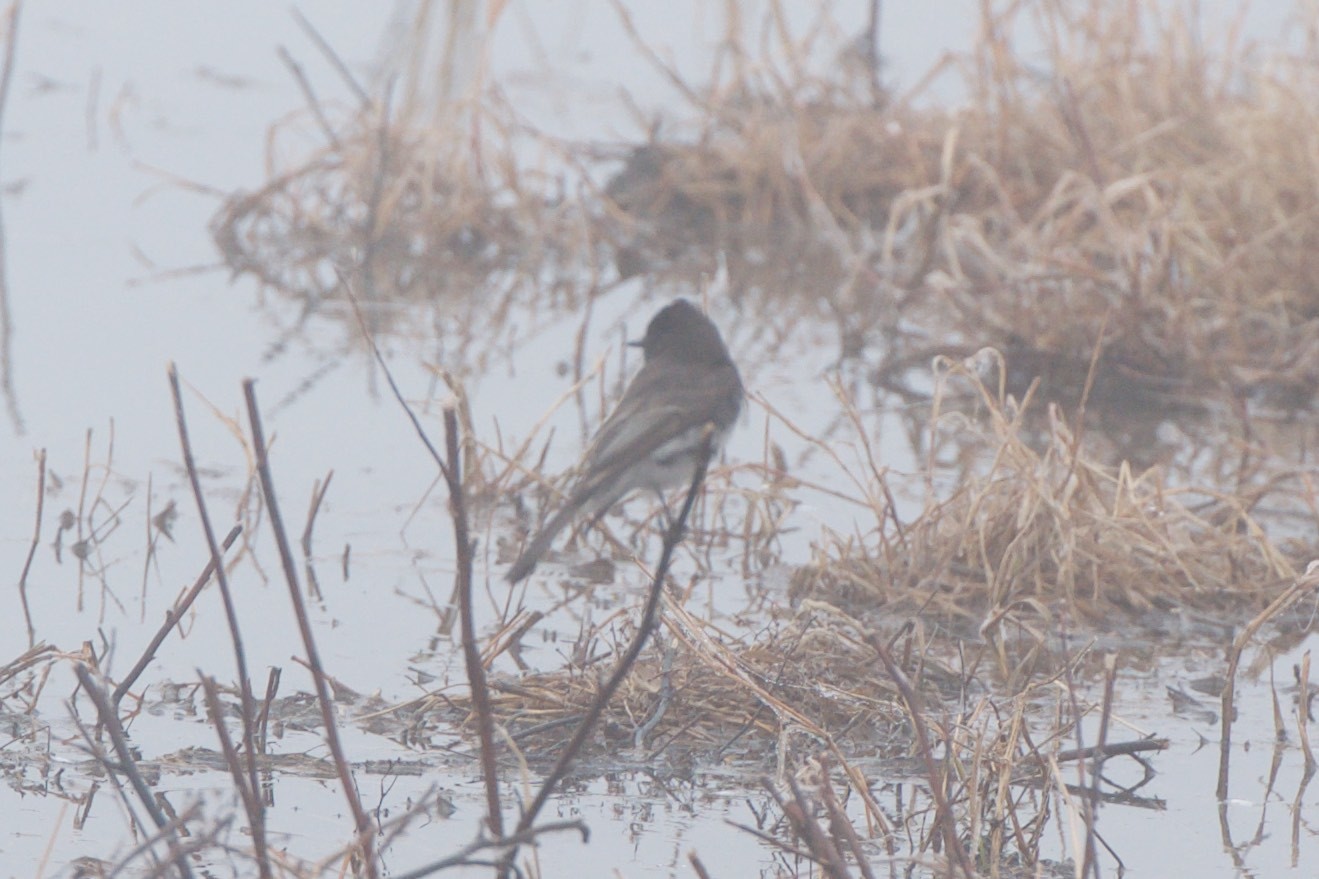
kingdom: Animalia
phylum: Chordata
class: Aves
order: Passeriformes
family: Tyrannidae
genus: Sayornis
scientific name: Sayornis nigricans
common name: Black phoebe
